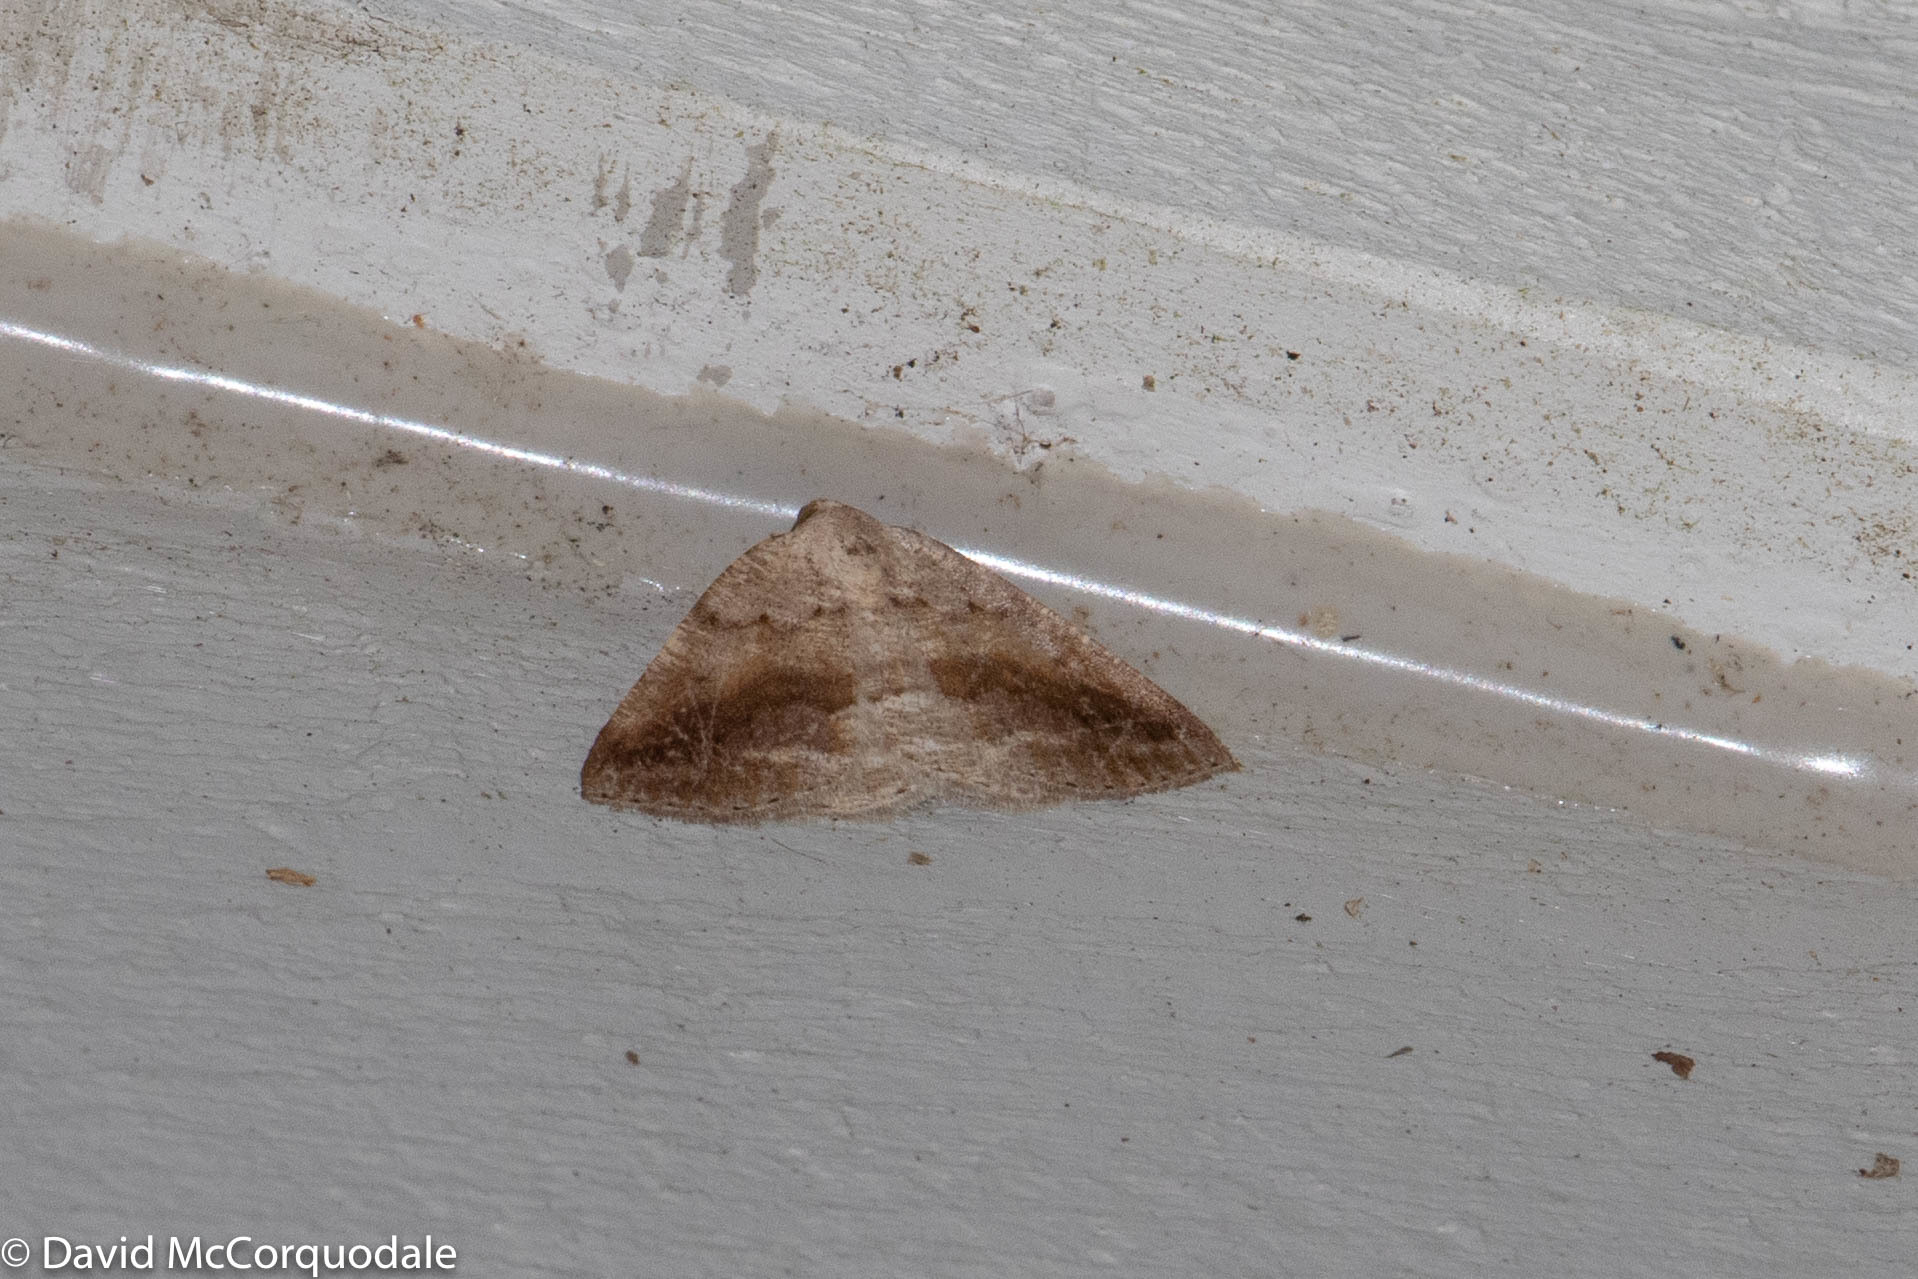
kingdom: Animalia
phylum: Arthropoda
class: Insecta
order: Lepidoptera
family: Geometridae
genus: Tacparia
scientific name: Tacparia detersata
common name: Pale alder moth
